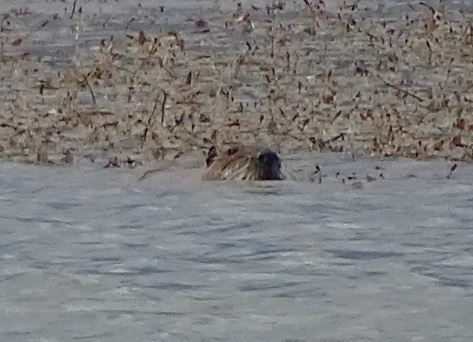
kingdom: Animalia
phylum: Chordata
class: Mammalia
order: Rodentia
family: Myocastoridae
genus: Myocastor
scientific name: Myocastor coypus
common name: Coypu
